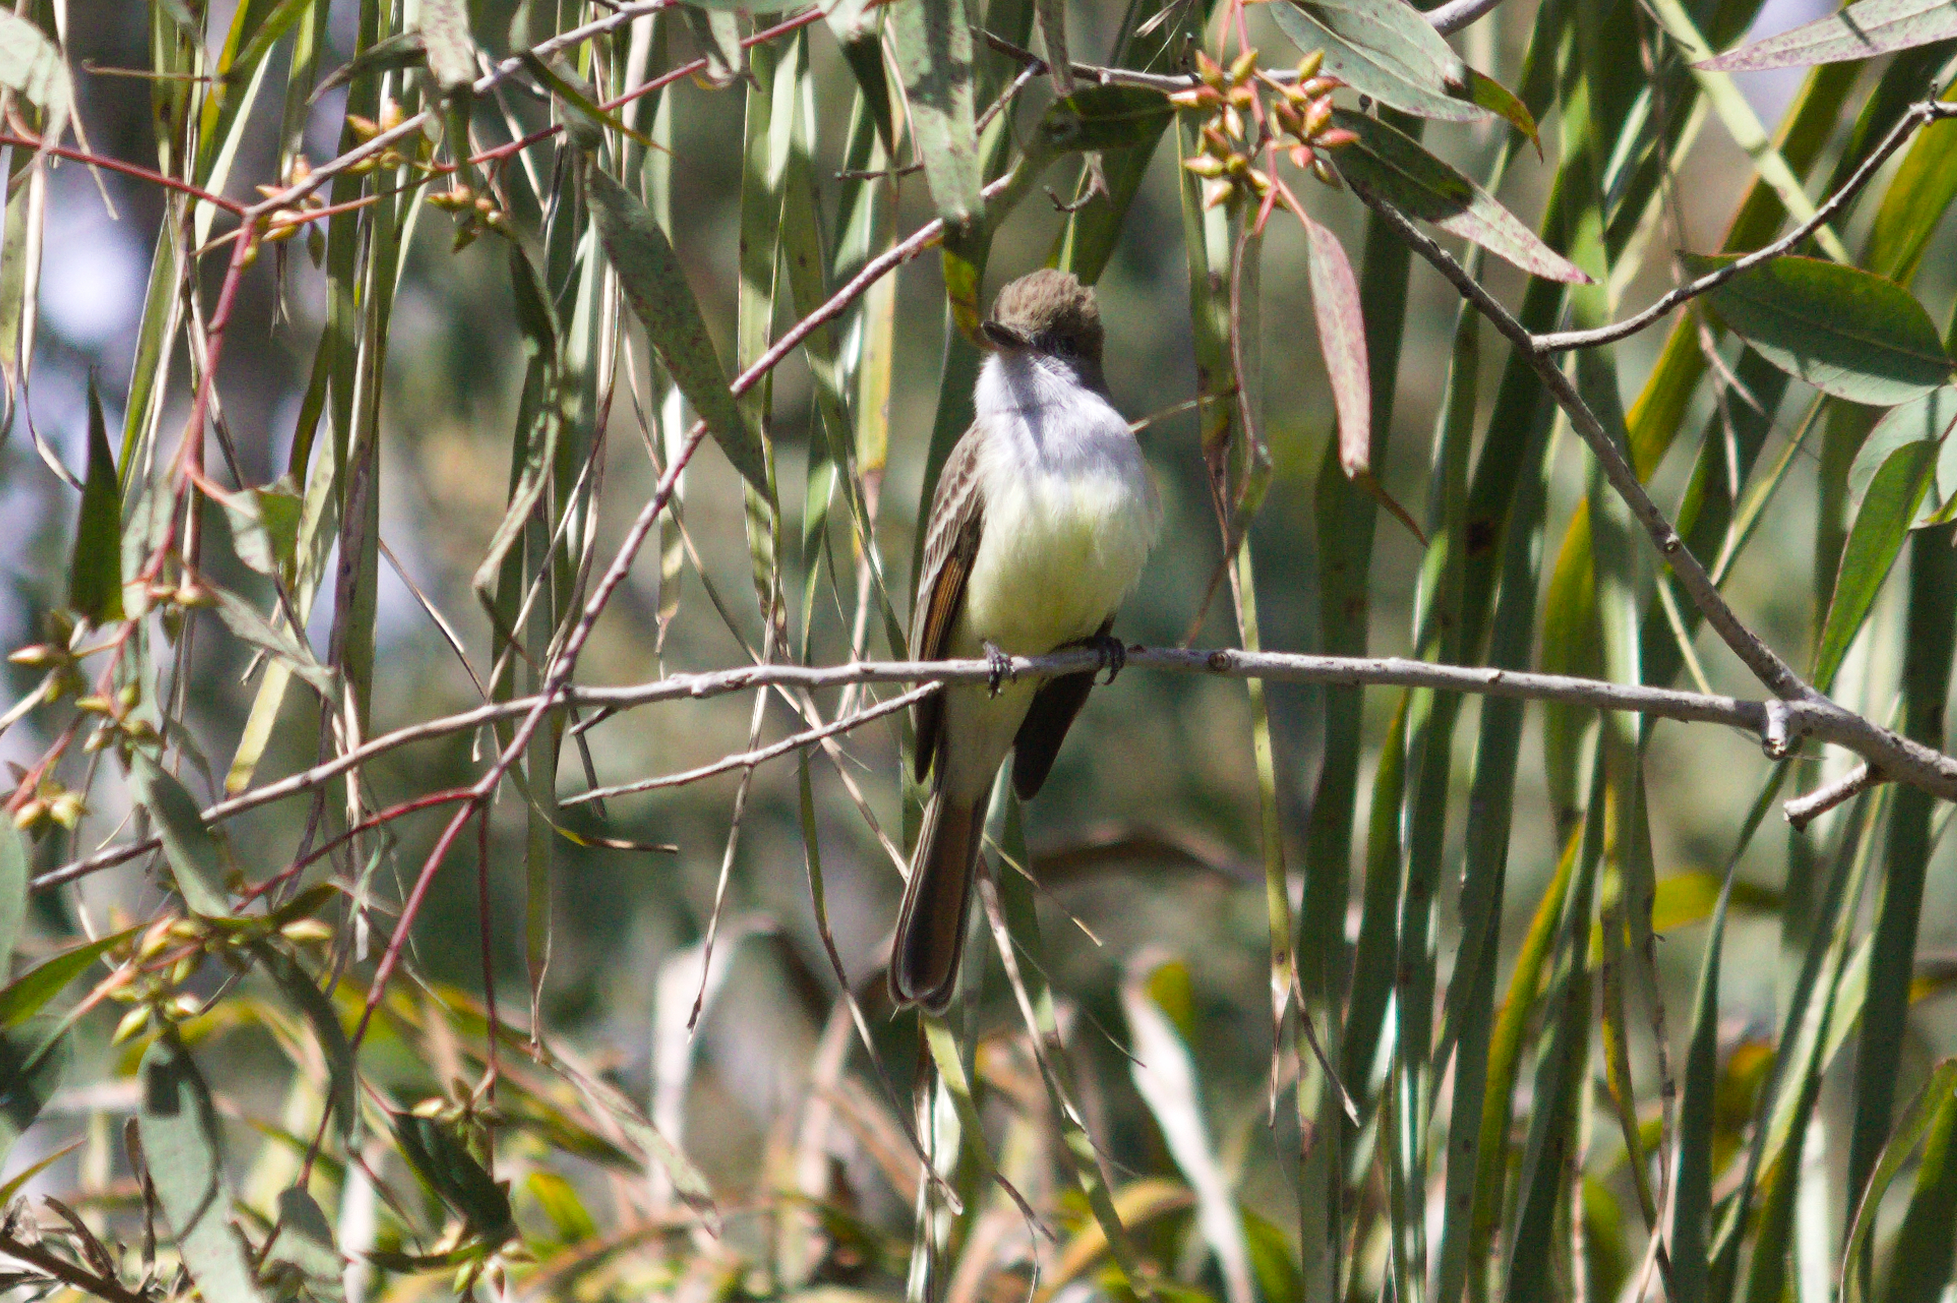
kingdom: Animalia
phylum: Chordata
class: Aves
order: Passeriformes
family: Tyrannidae
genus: Myiarchus
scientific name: Myiarchus tyrannulus
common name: Brown-crested flycatcher
